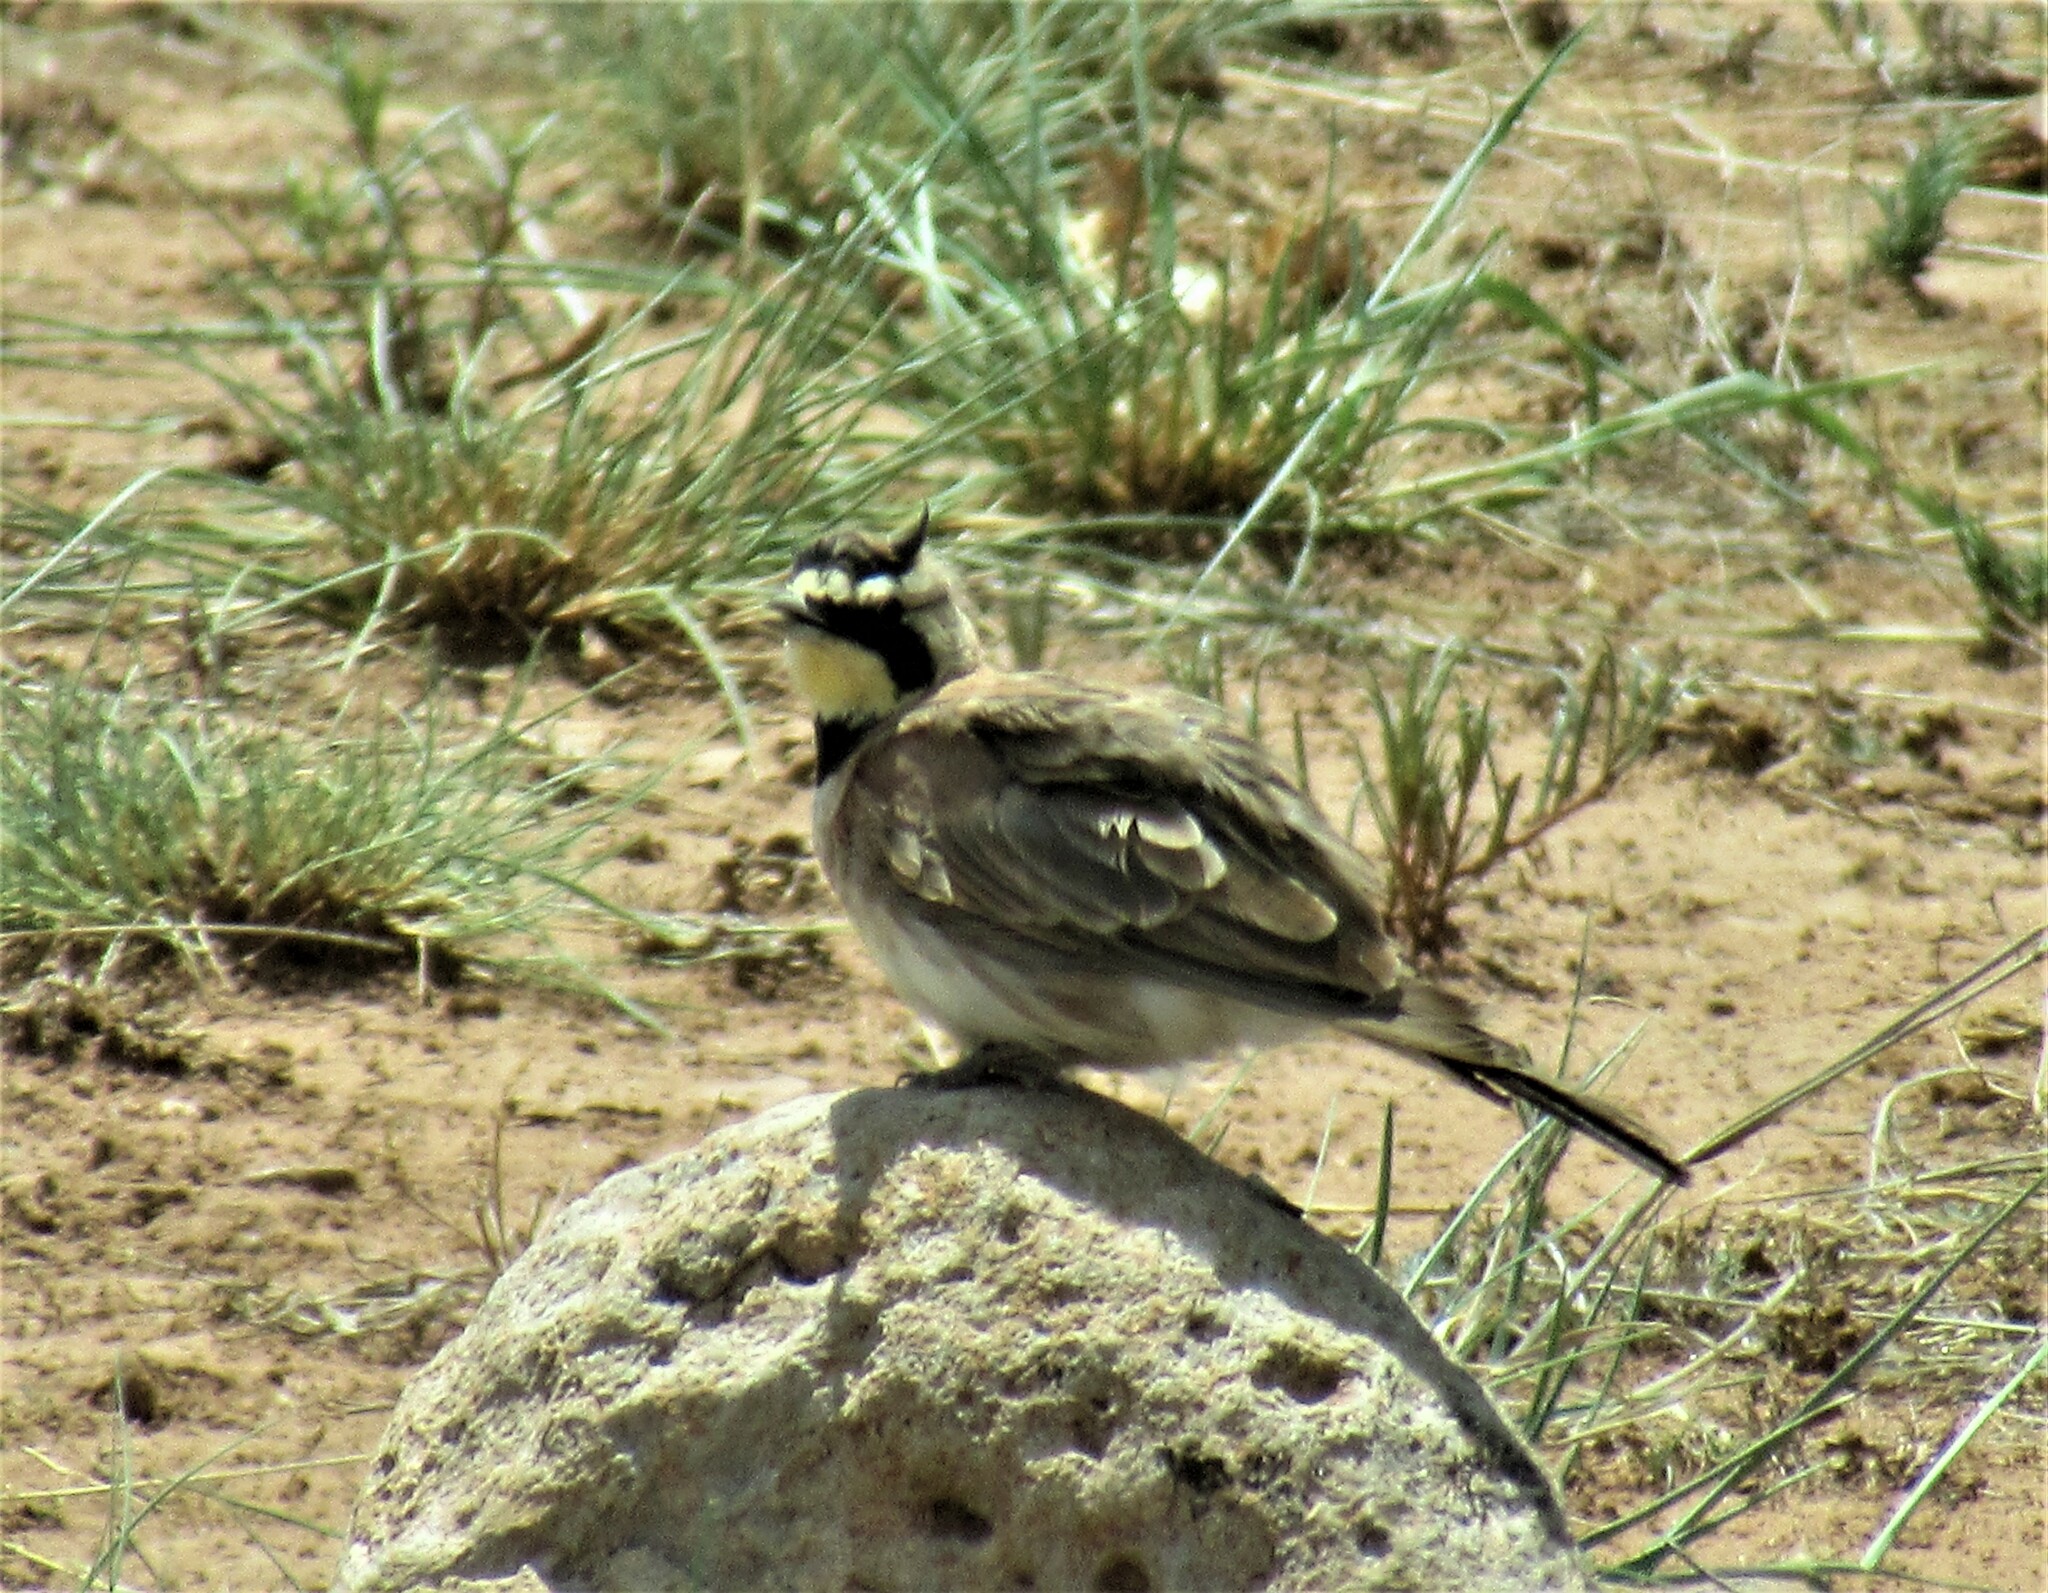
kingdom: Animalia
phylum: Chordata
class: Aves
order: Passeriformes
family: Alaudidae
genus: Eremophila
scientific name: Eremophila alpestris
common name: Horned lark
